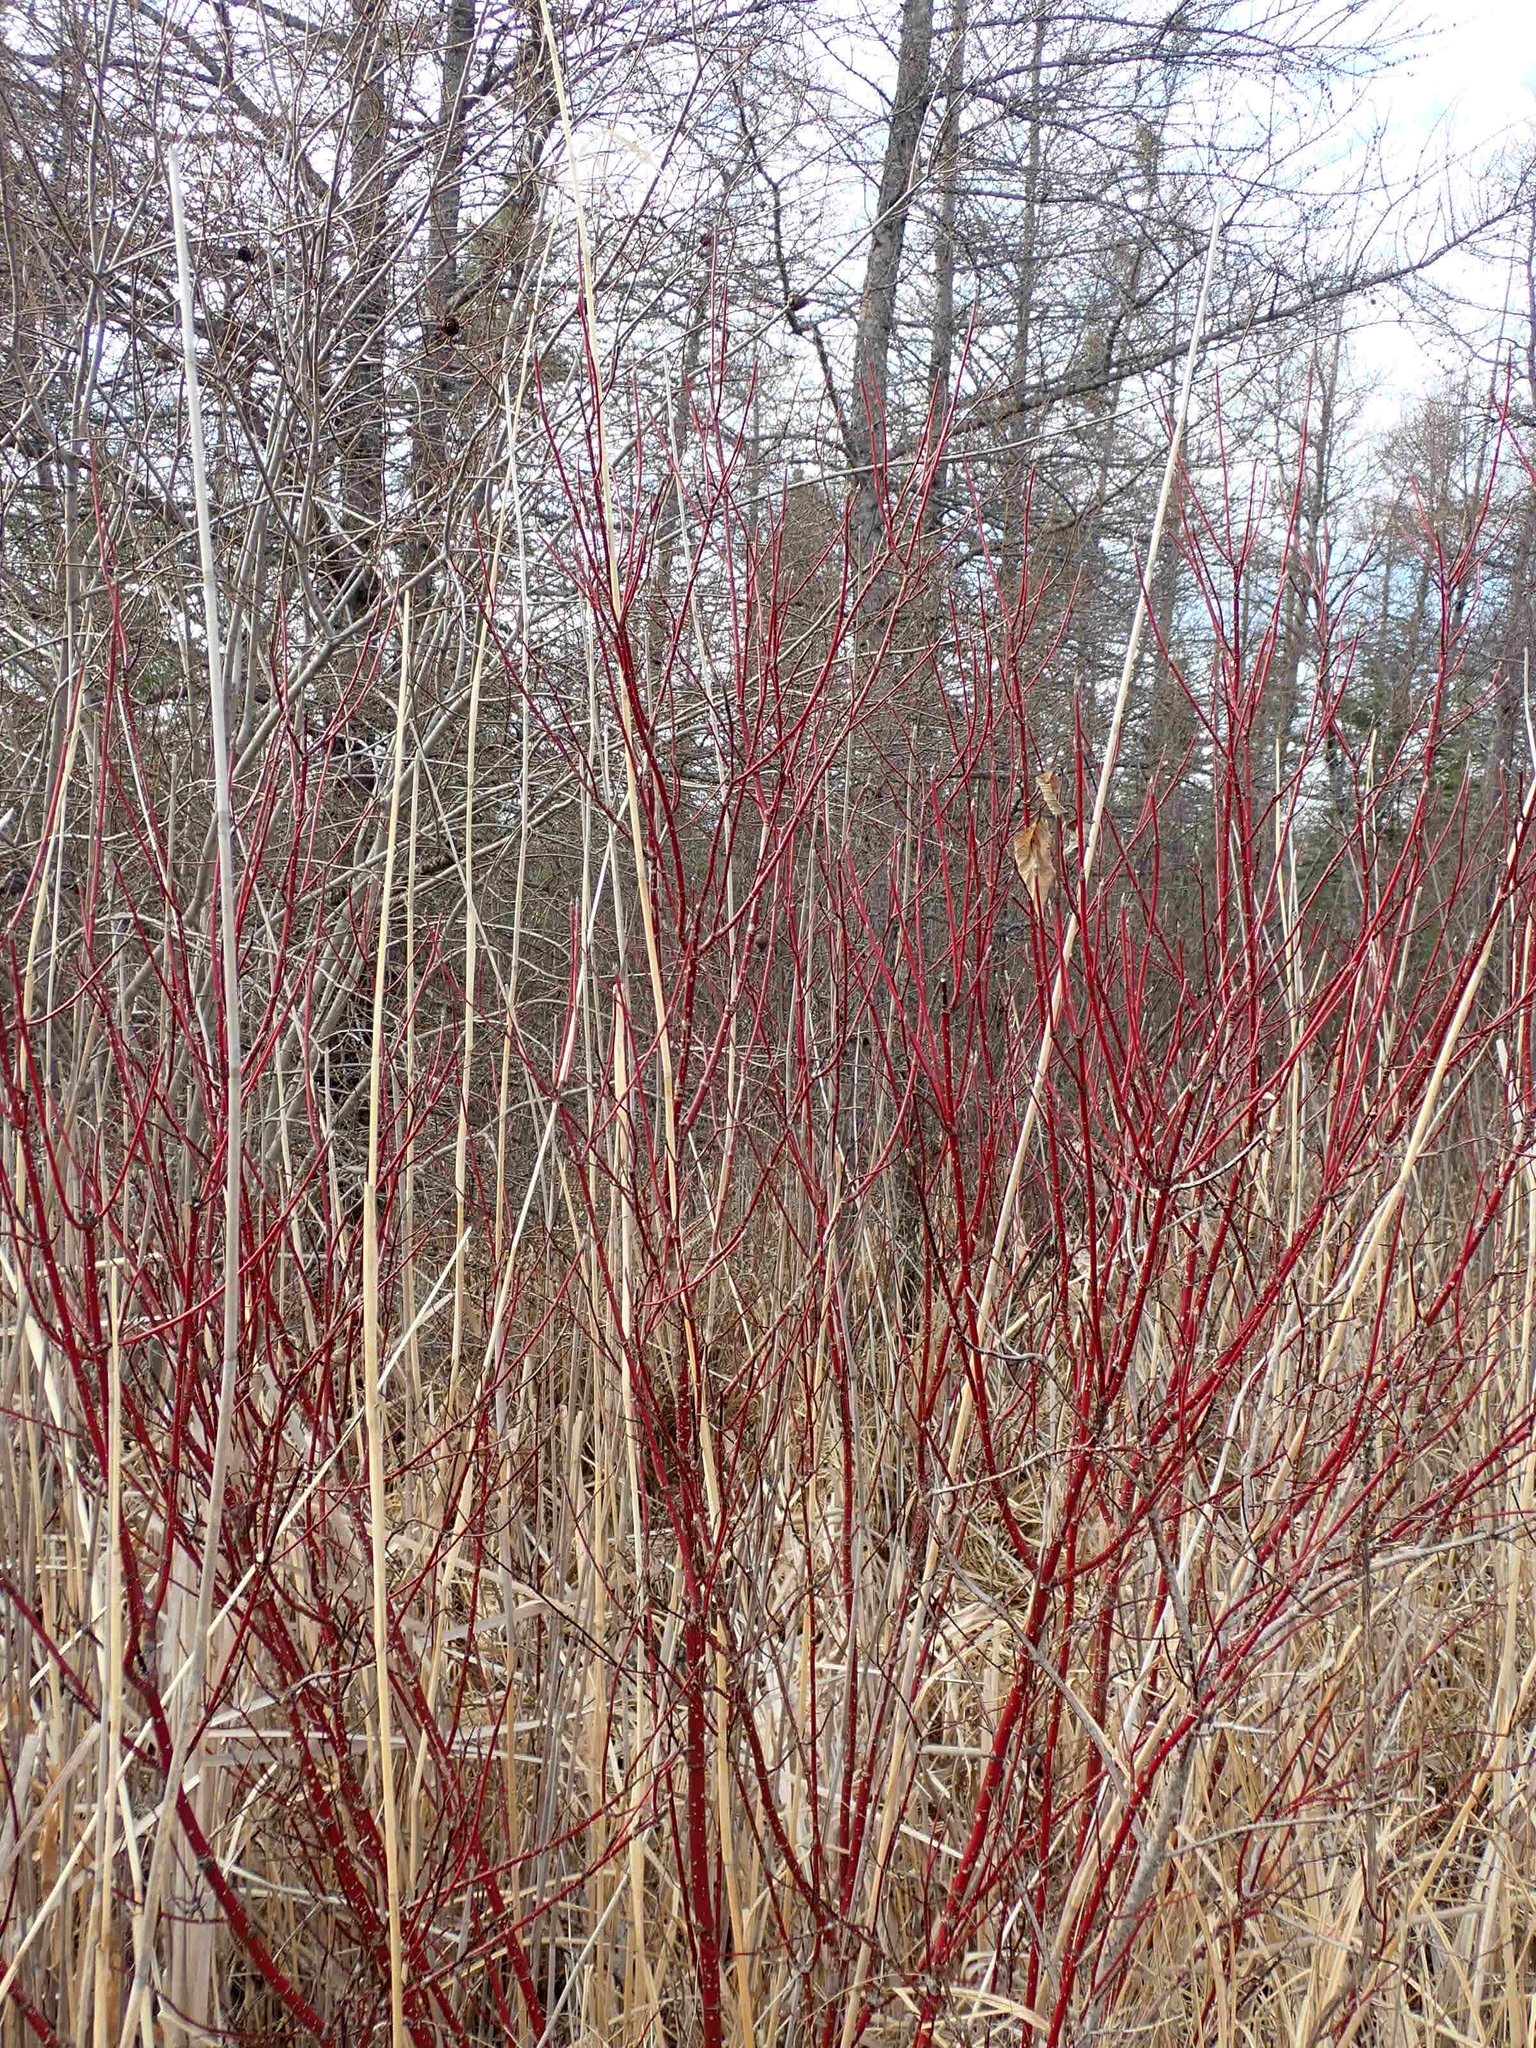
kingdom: Plantae
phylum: Tracheophyta
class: Magnoliopsida
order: Cornales
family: Cornaceae
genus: Cornus
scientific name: Cornus sericea
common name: Red-osier dogwood
